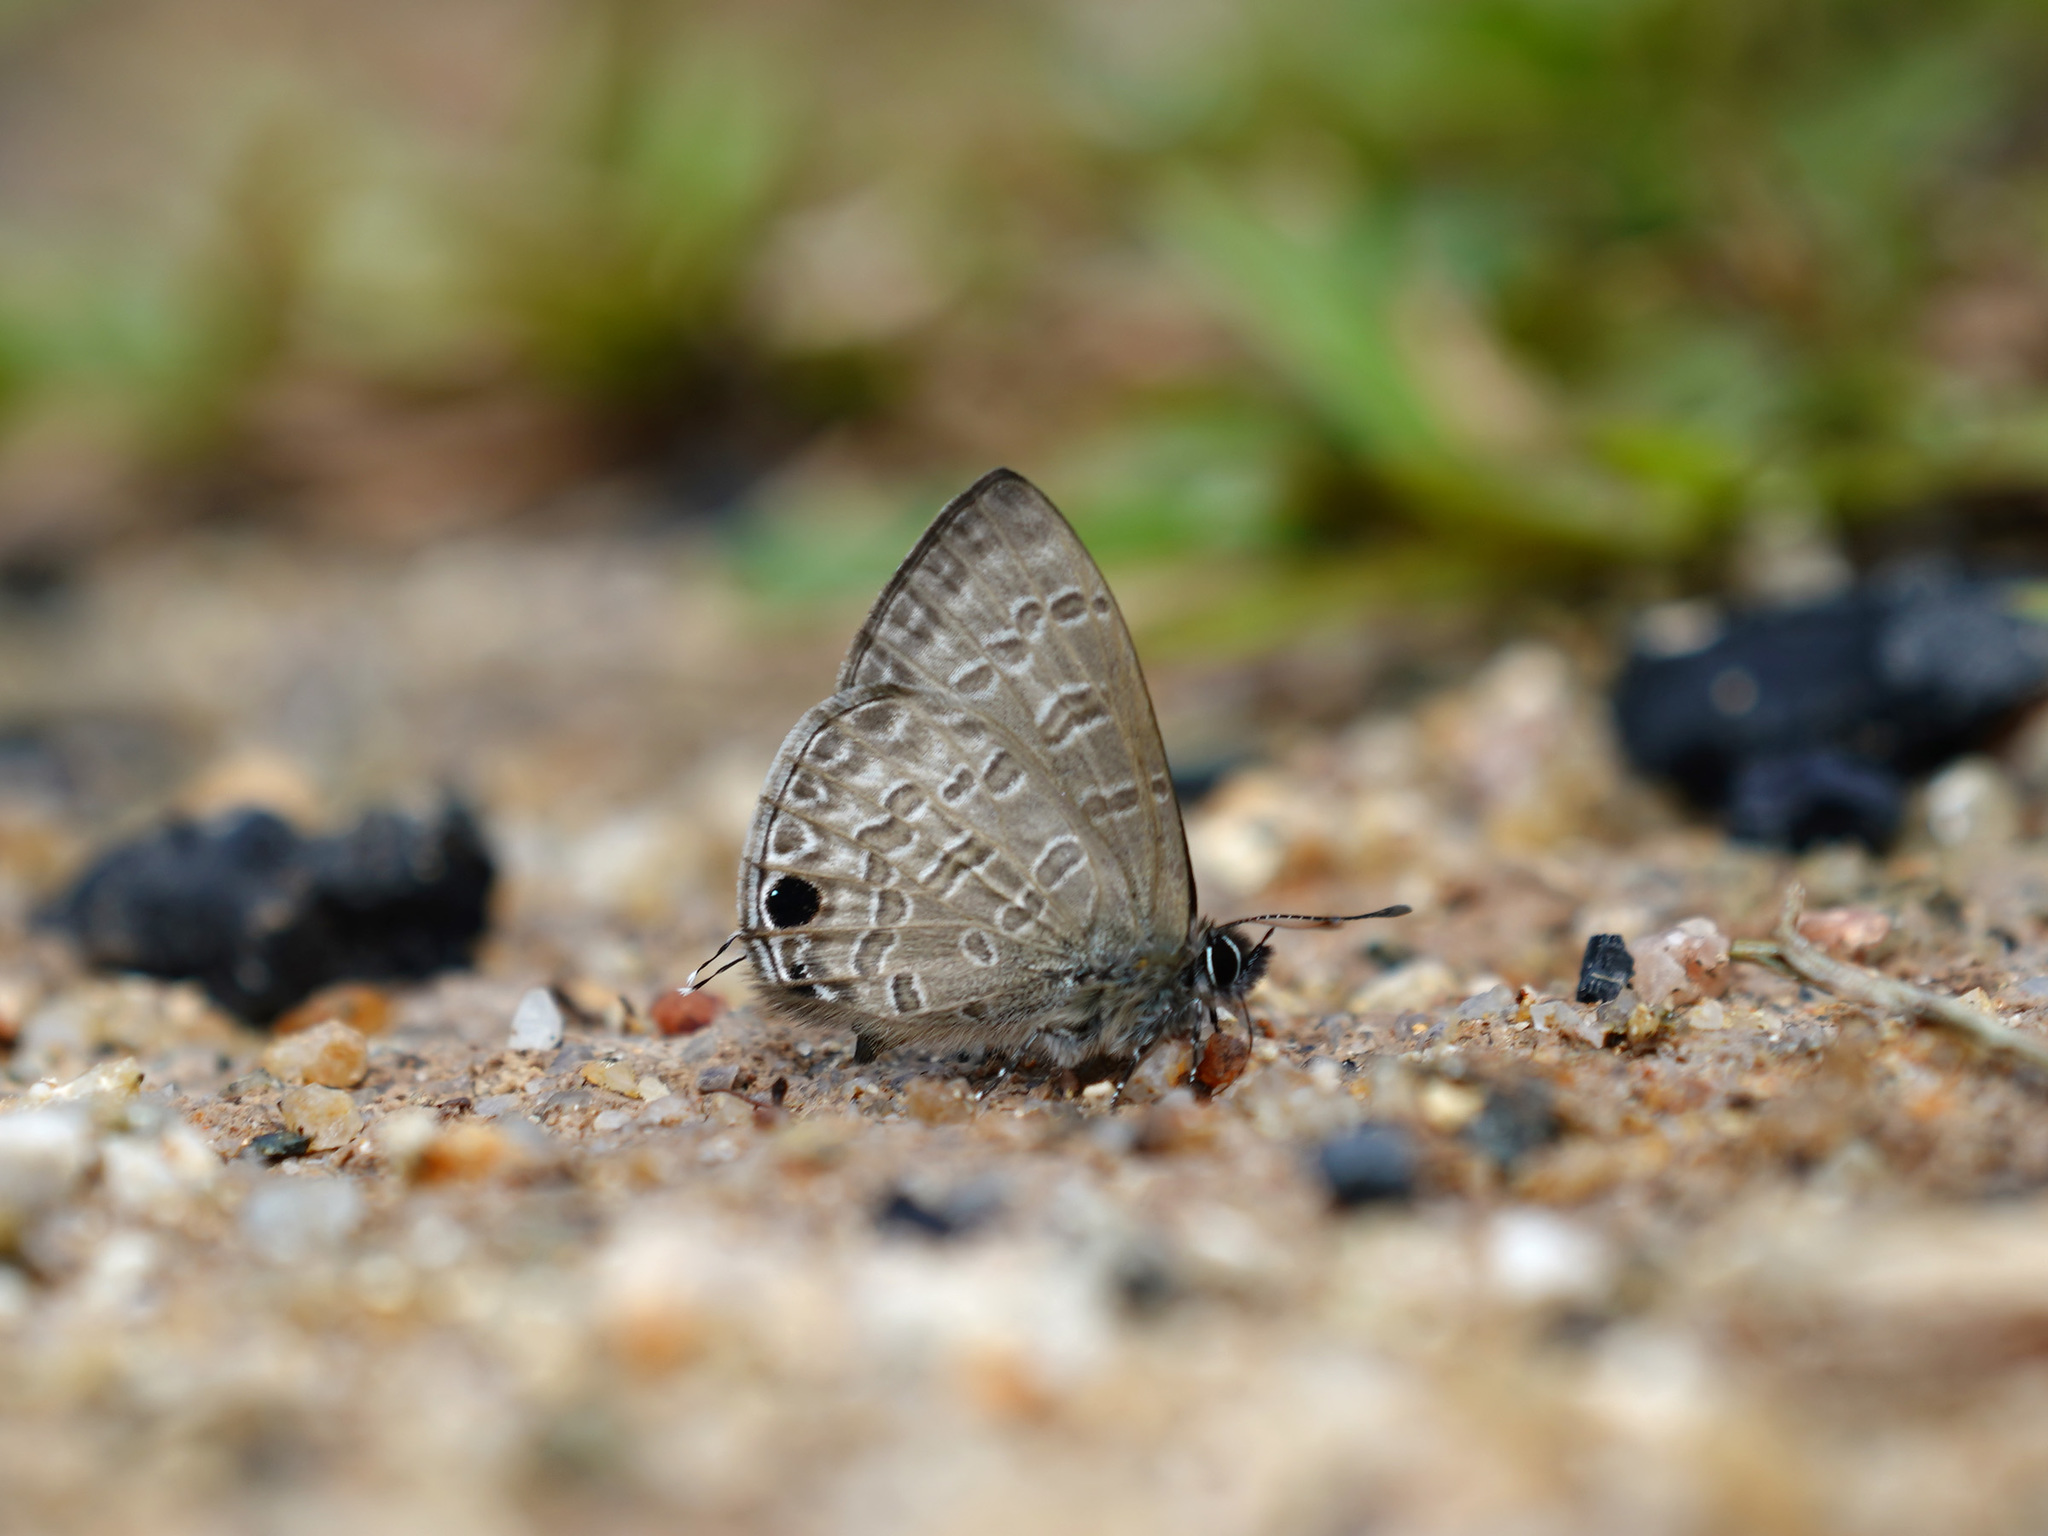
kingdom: Animalia
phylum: Arthropoda
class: Insecta
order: Lepidoptera
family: Lycaenidae
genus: Prosotas
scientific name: Prosotas nelides
